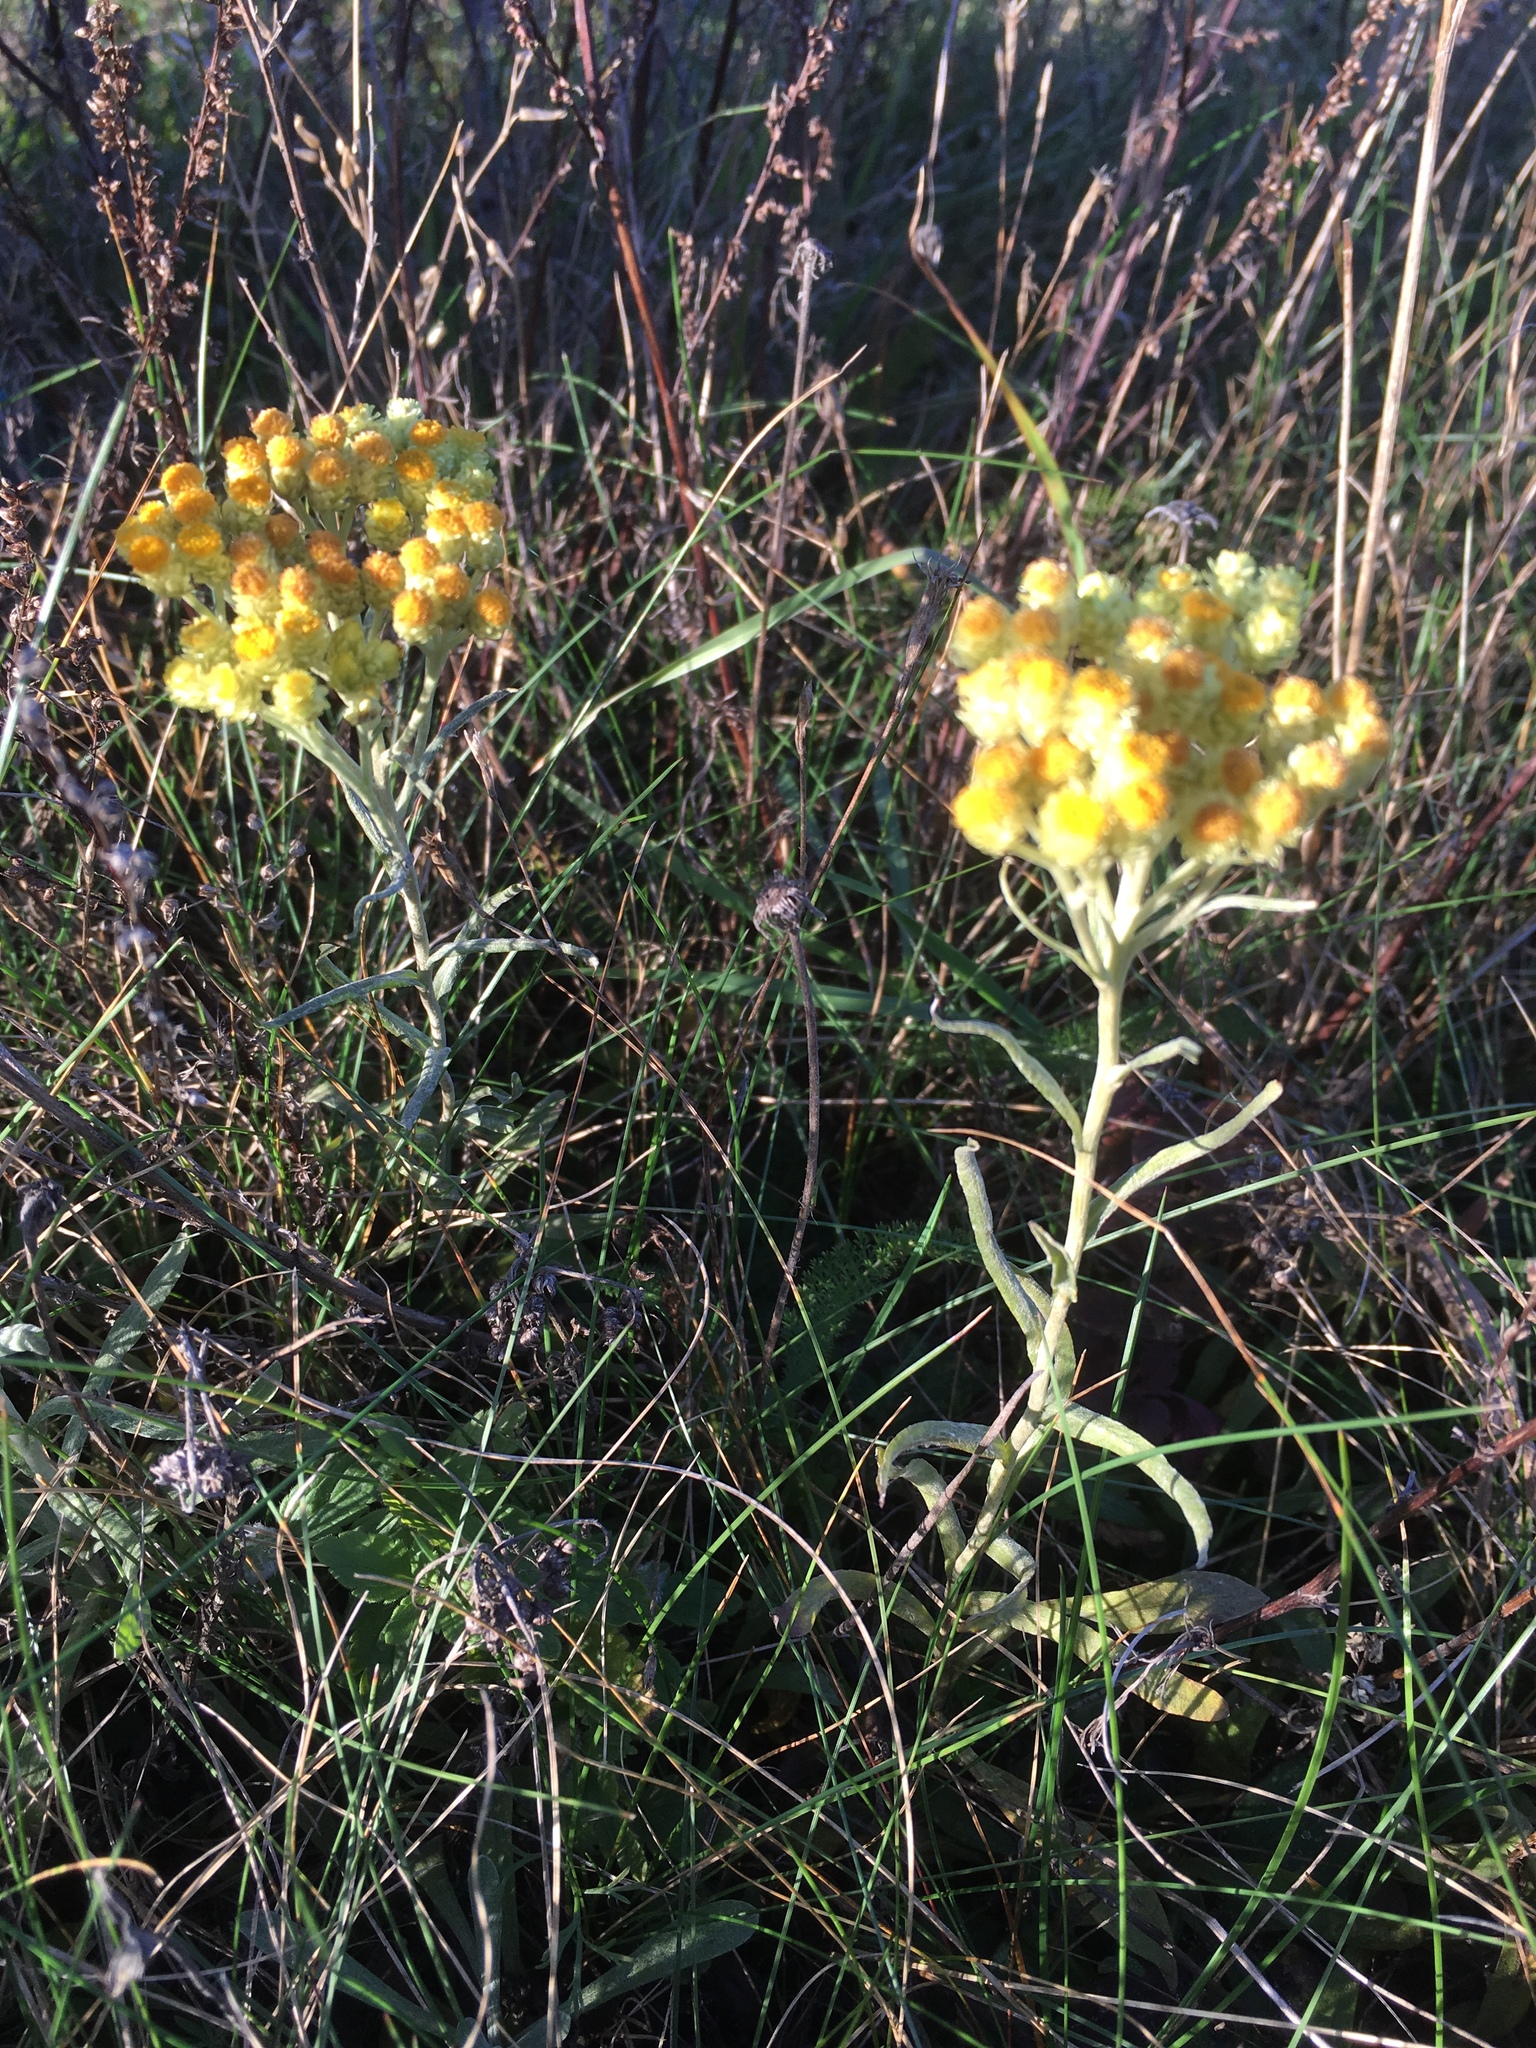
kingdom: Plantae
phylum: Tracheophyta
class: Magnoliopsida
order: Asterales
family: Asteraceae
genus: Helichrysum
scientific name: Helichrysum arenarium
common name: Strawflower
